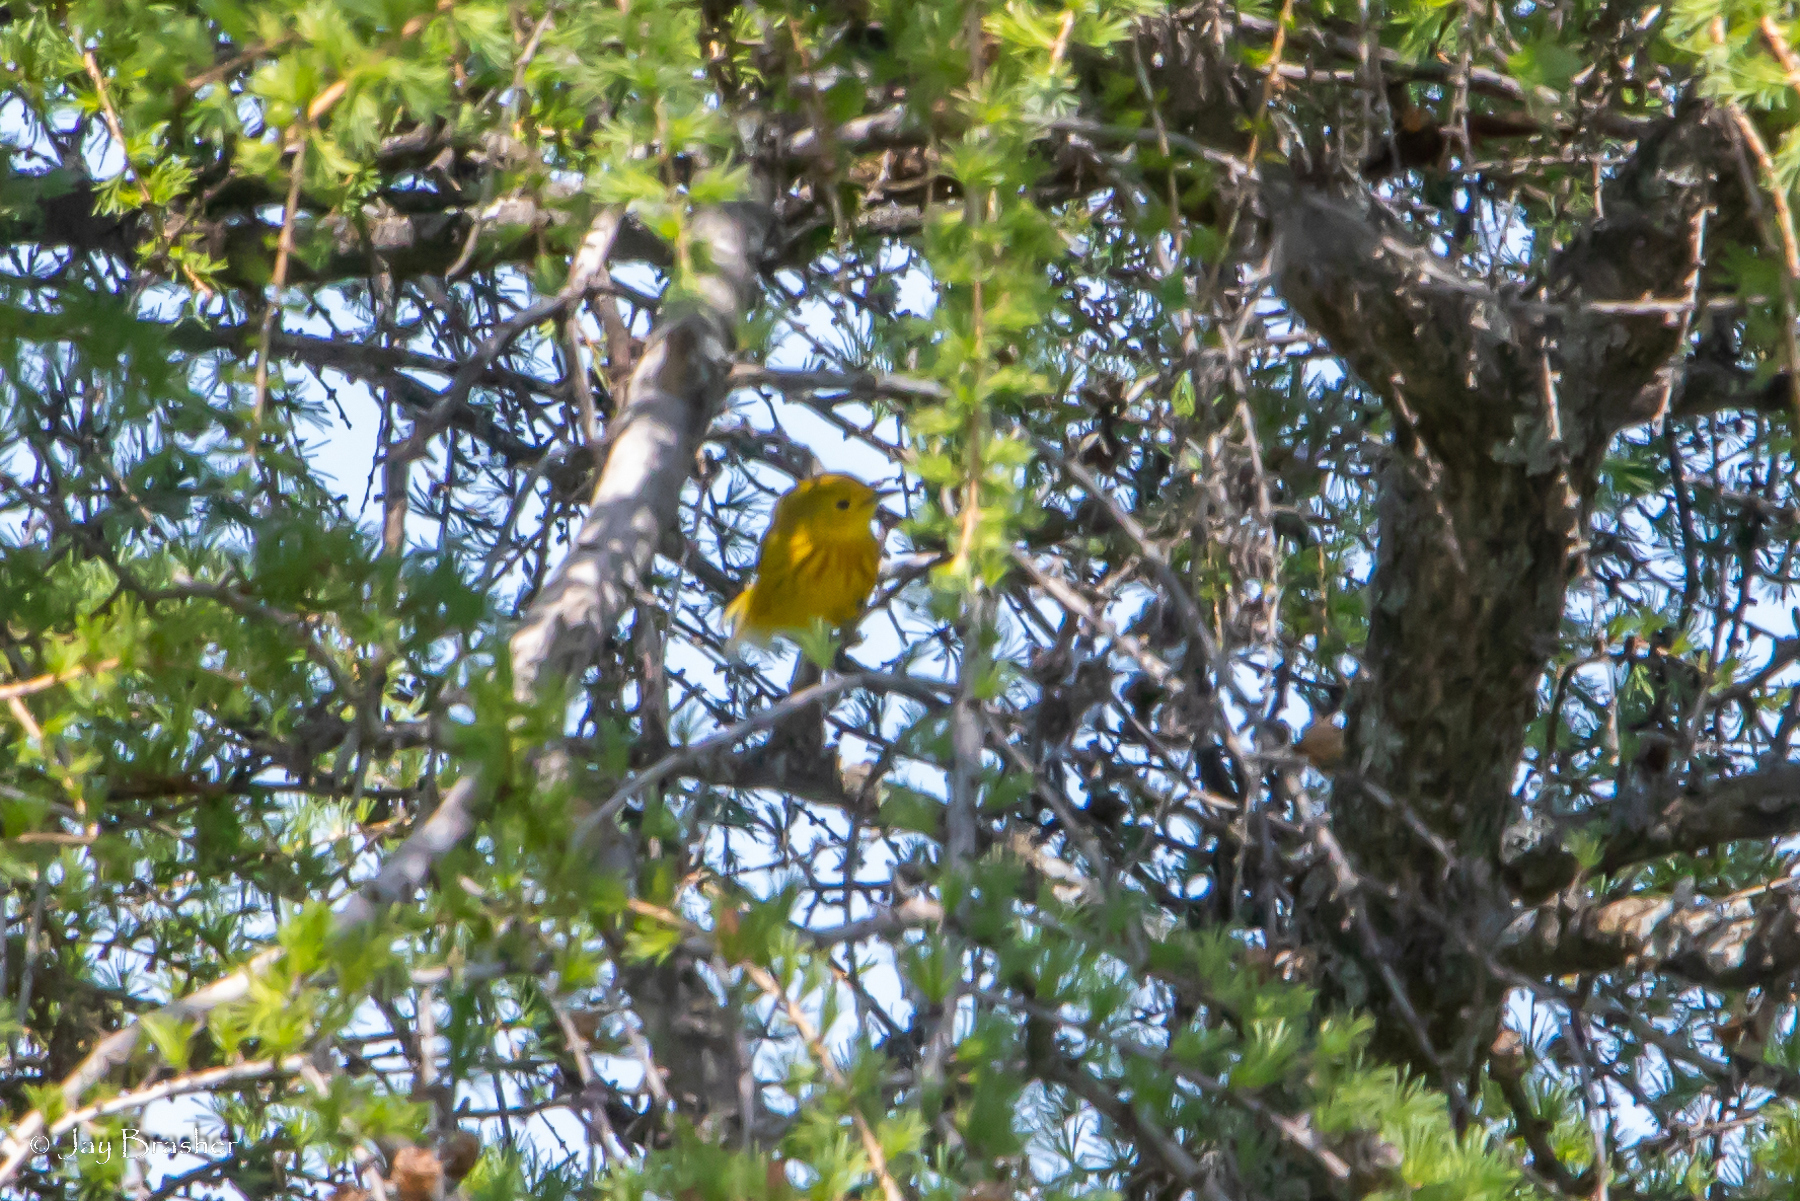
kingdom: Animalia
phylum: Chordata
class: Aves
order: Passeriformes
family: Parulidae
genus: Setophaga
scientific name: Setophaga petechia
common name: Yellow warbler
